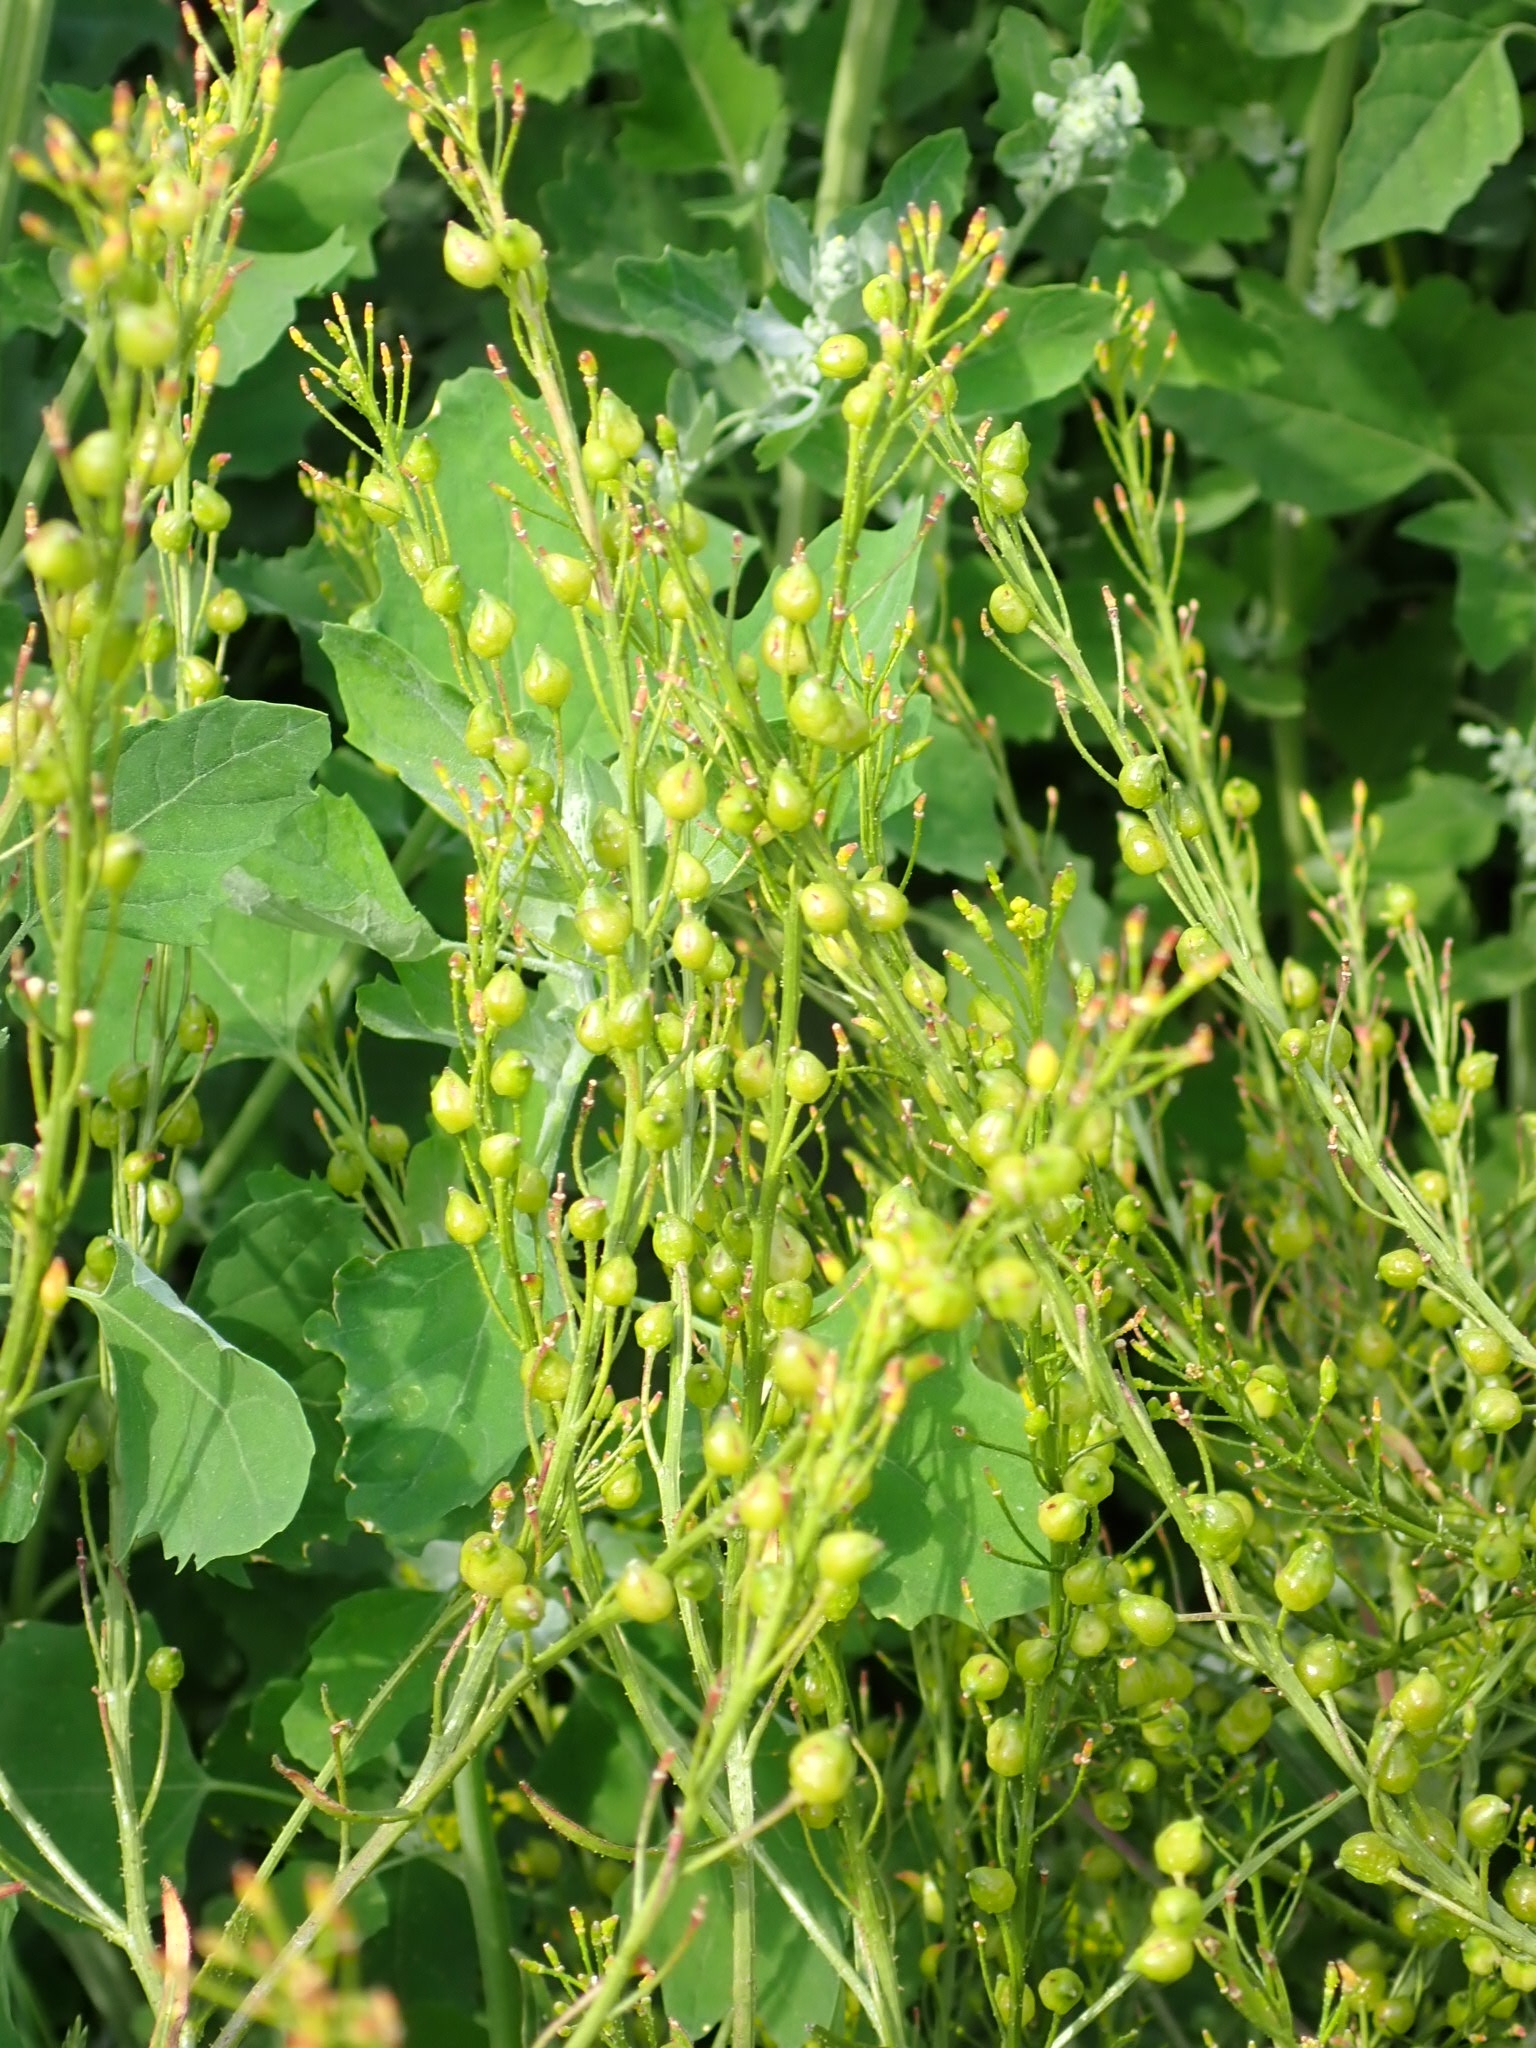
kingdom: Plantae
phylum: Tracheophyta
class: Magnoliopsida
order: Brassicales
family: Brassicaceae
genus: Bunias
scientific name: Bunias orientalis
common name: Warty-cabbage
